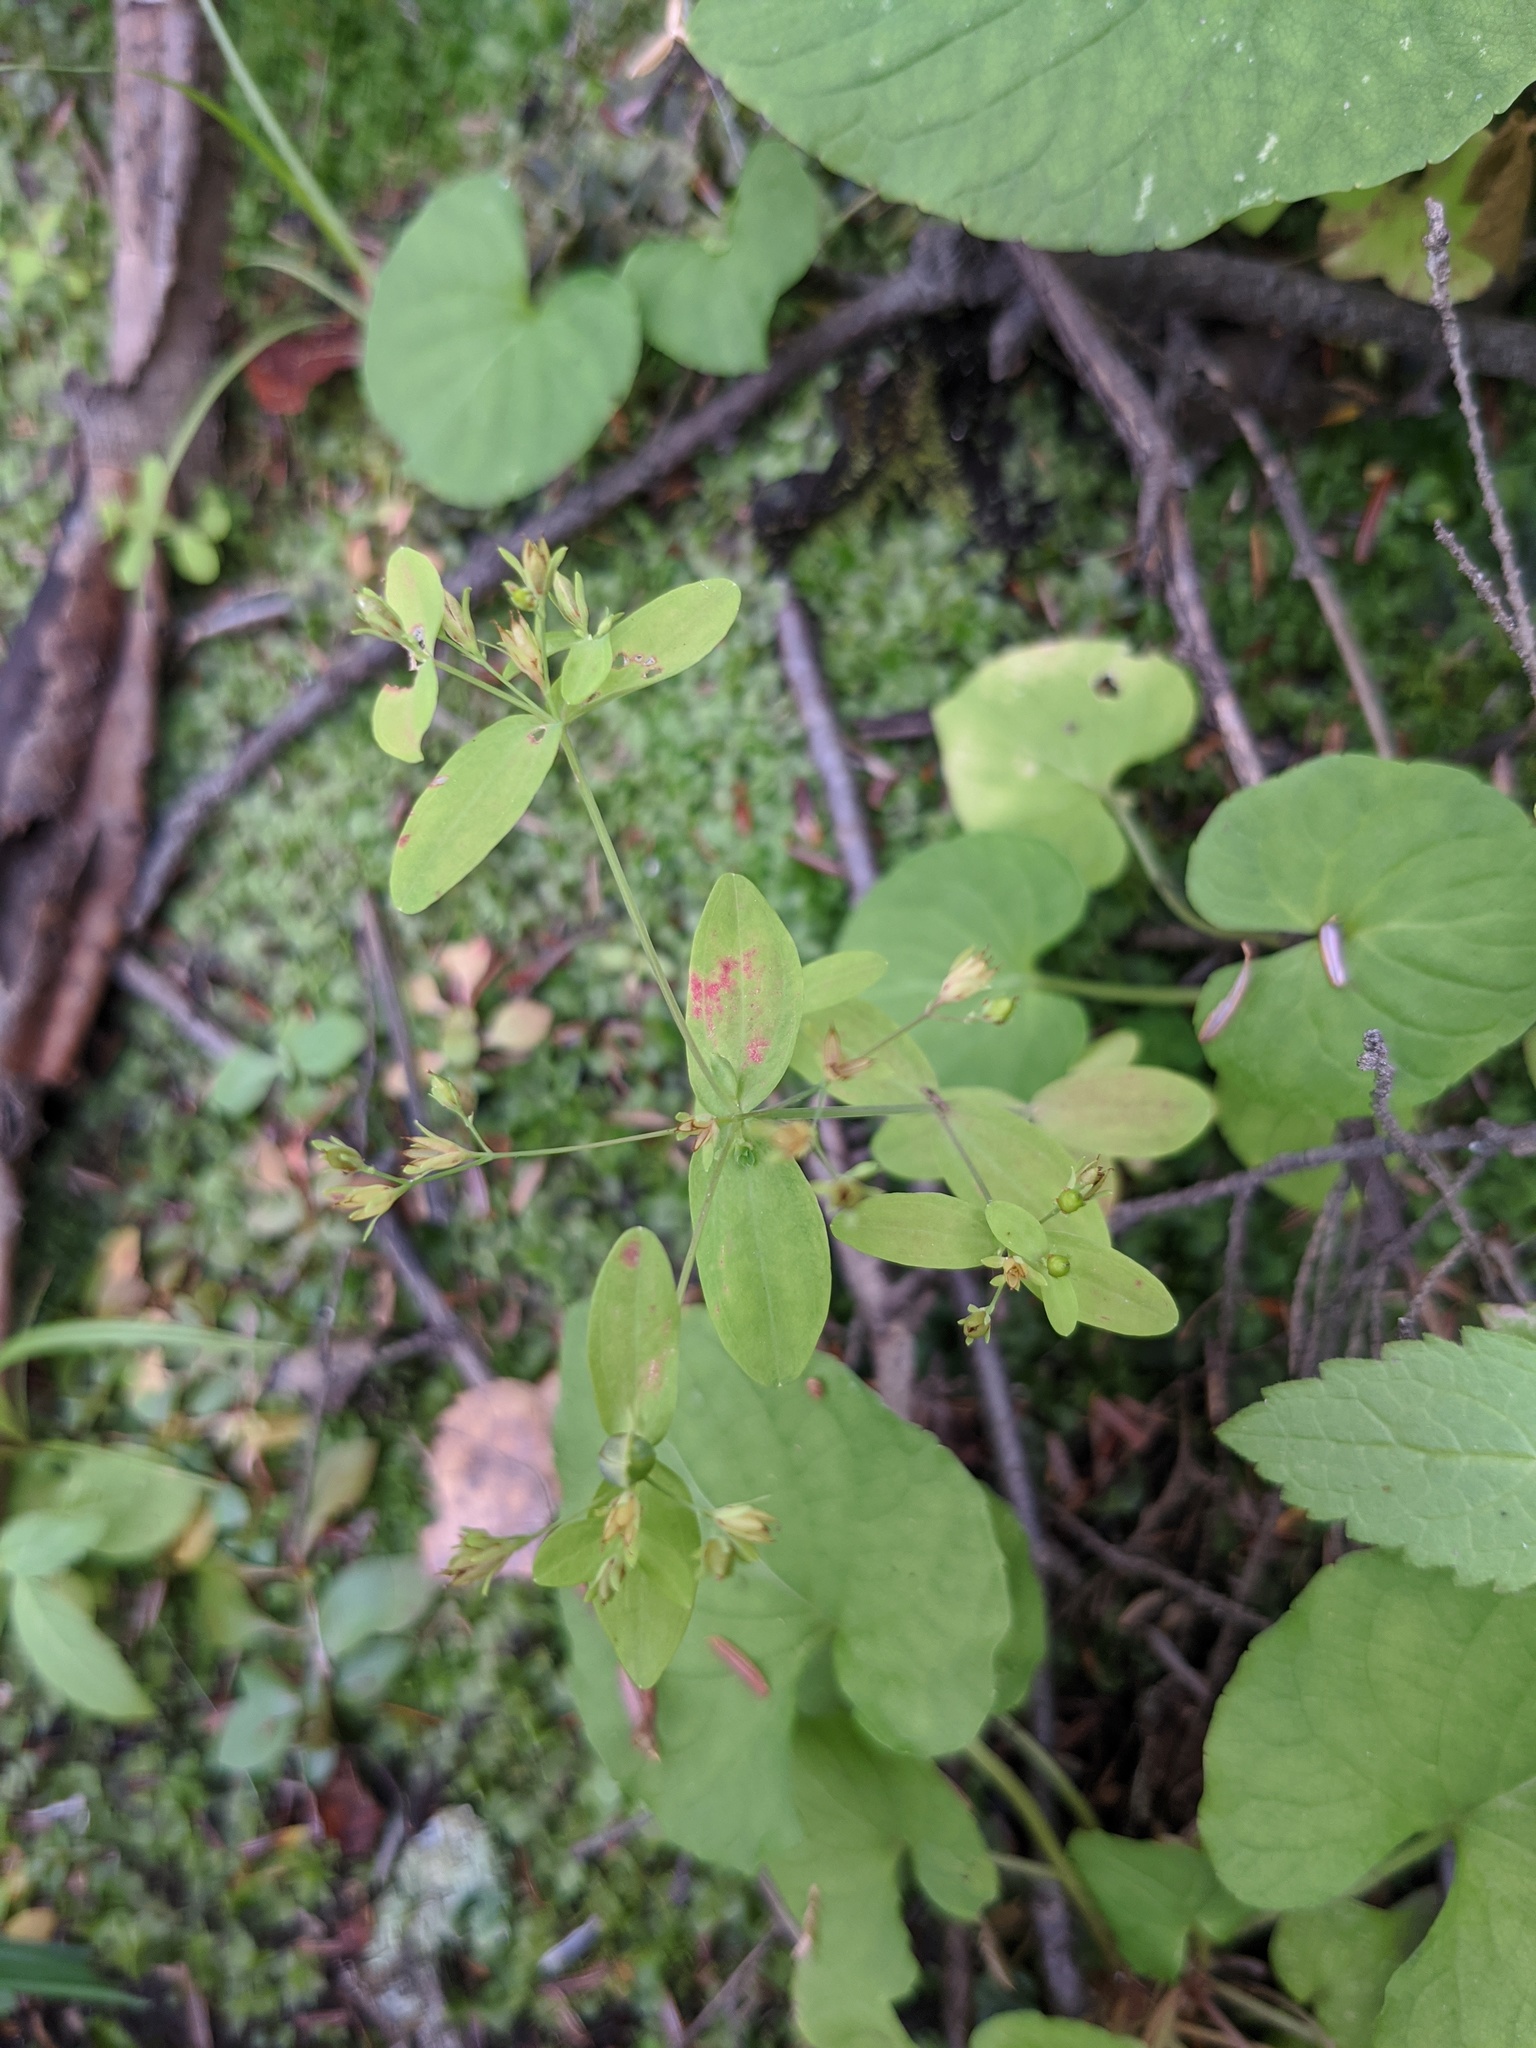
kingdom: Plantae
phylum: Tracheophyta
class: Magnoliopsida
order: Malpighiales
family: Hypericaceae
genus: Hypericum
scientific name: Hypericum mutilum
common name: Dwarf st. john's-wort
